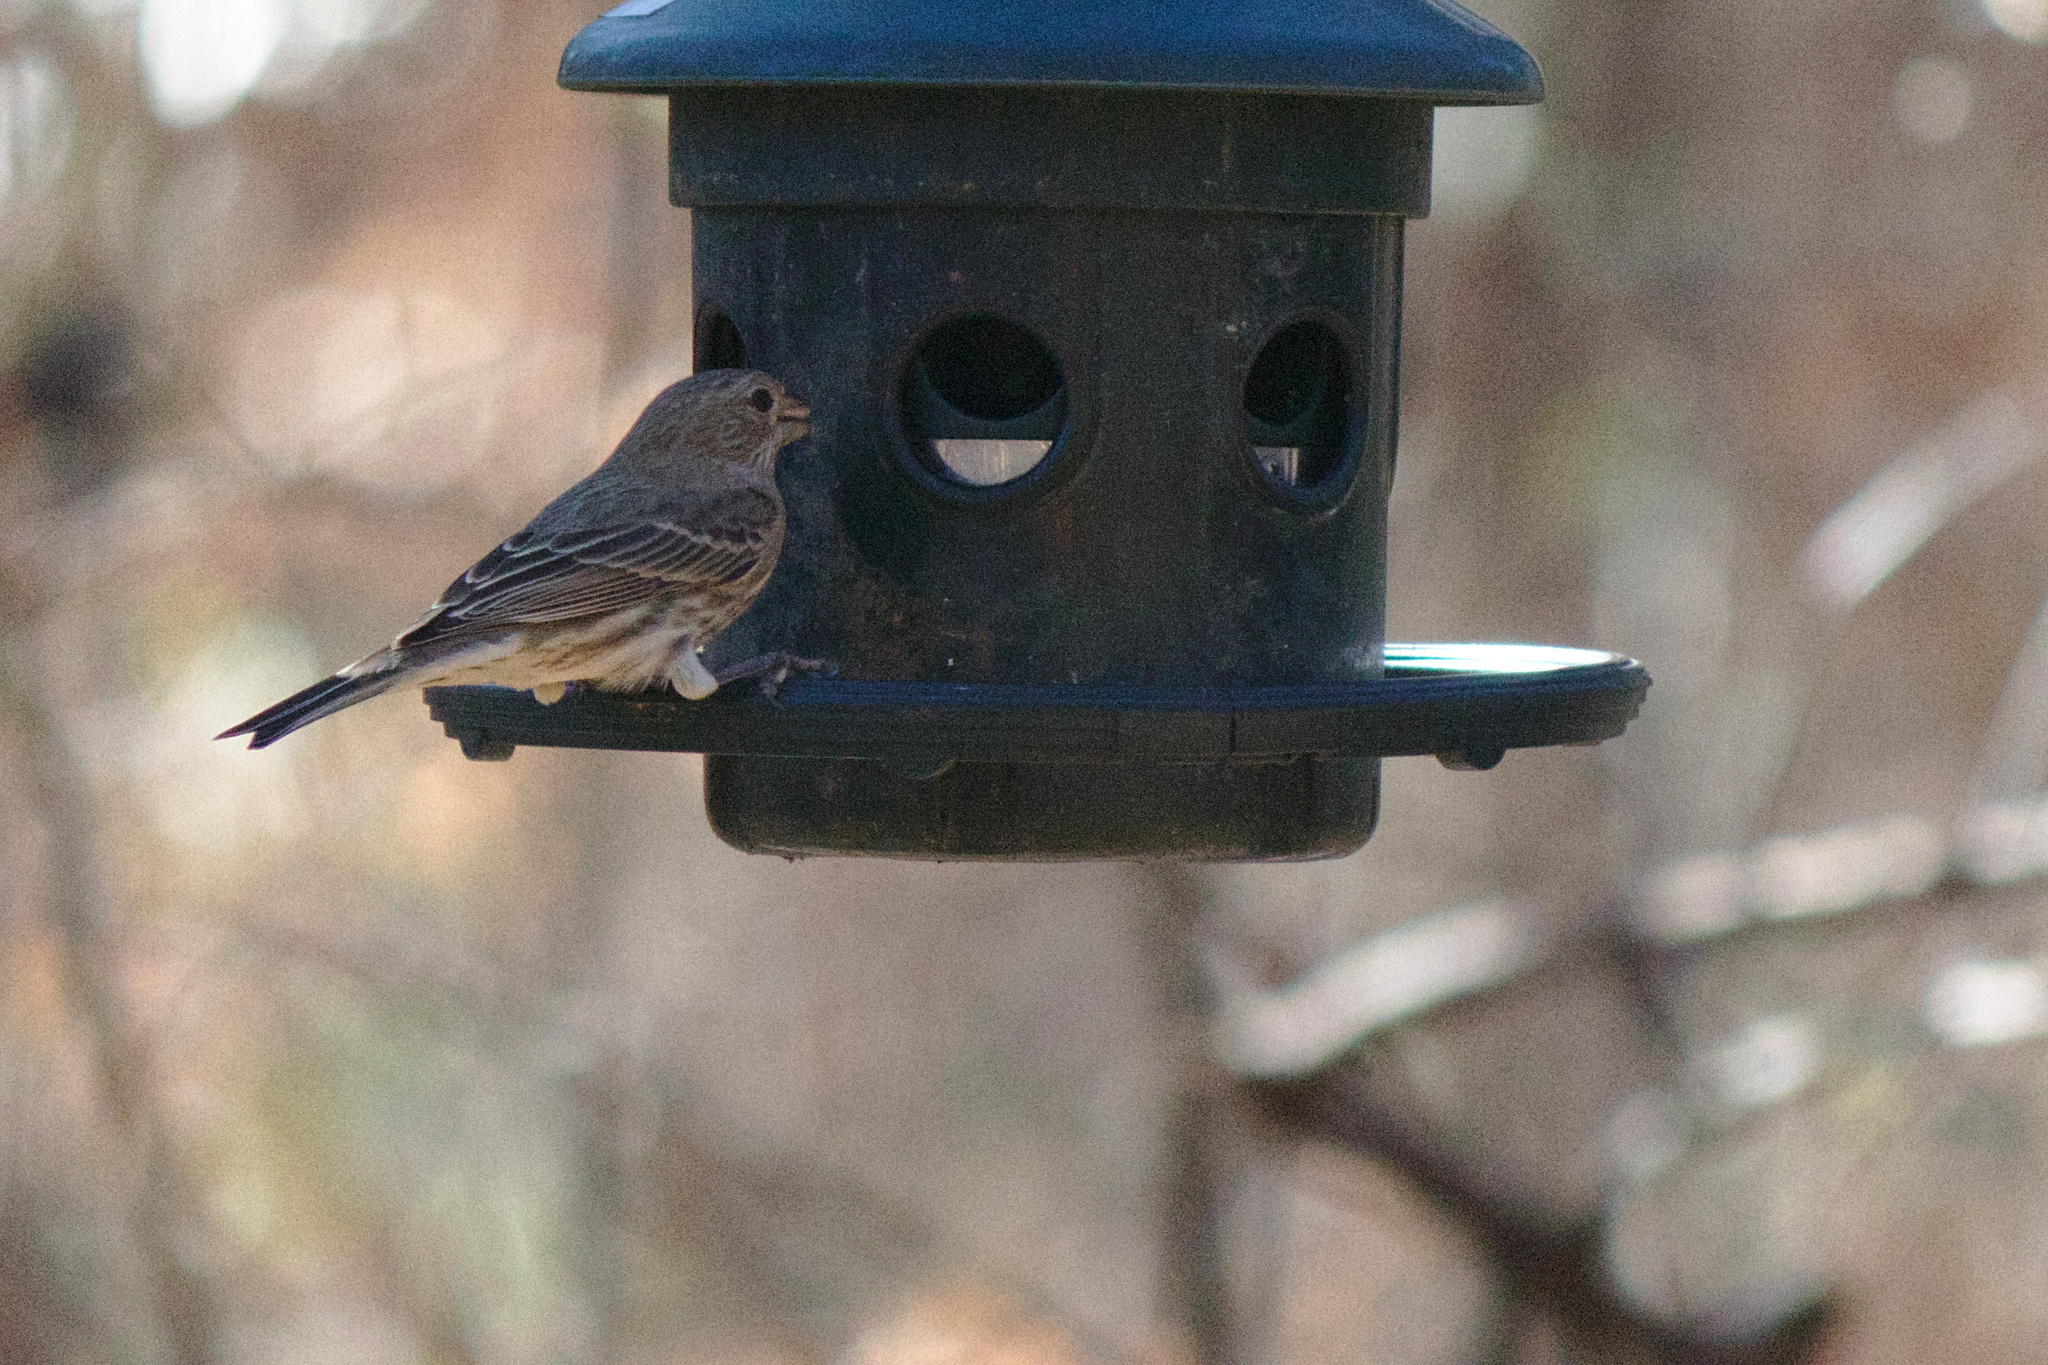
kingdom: Animalia
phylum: Chordata
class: Aves
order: Passeriformes
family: Fringillidae
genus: Haemorhous
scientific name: Haemorhous mexicanus
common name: House finch
